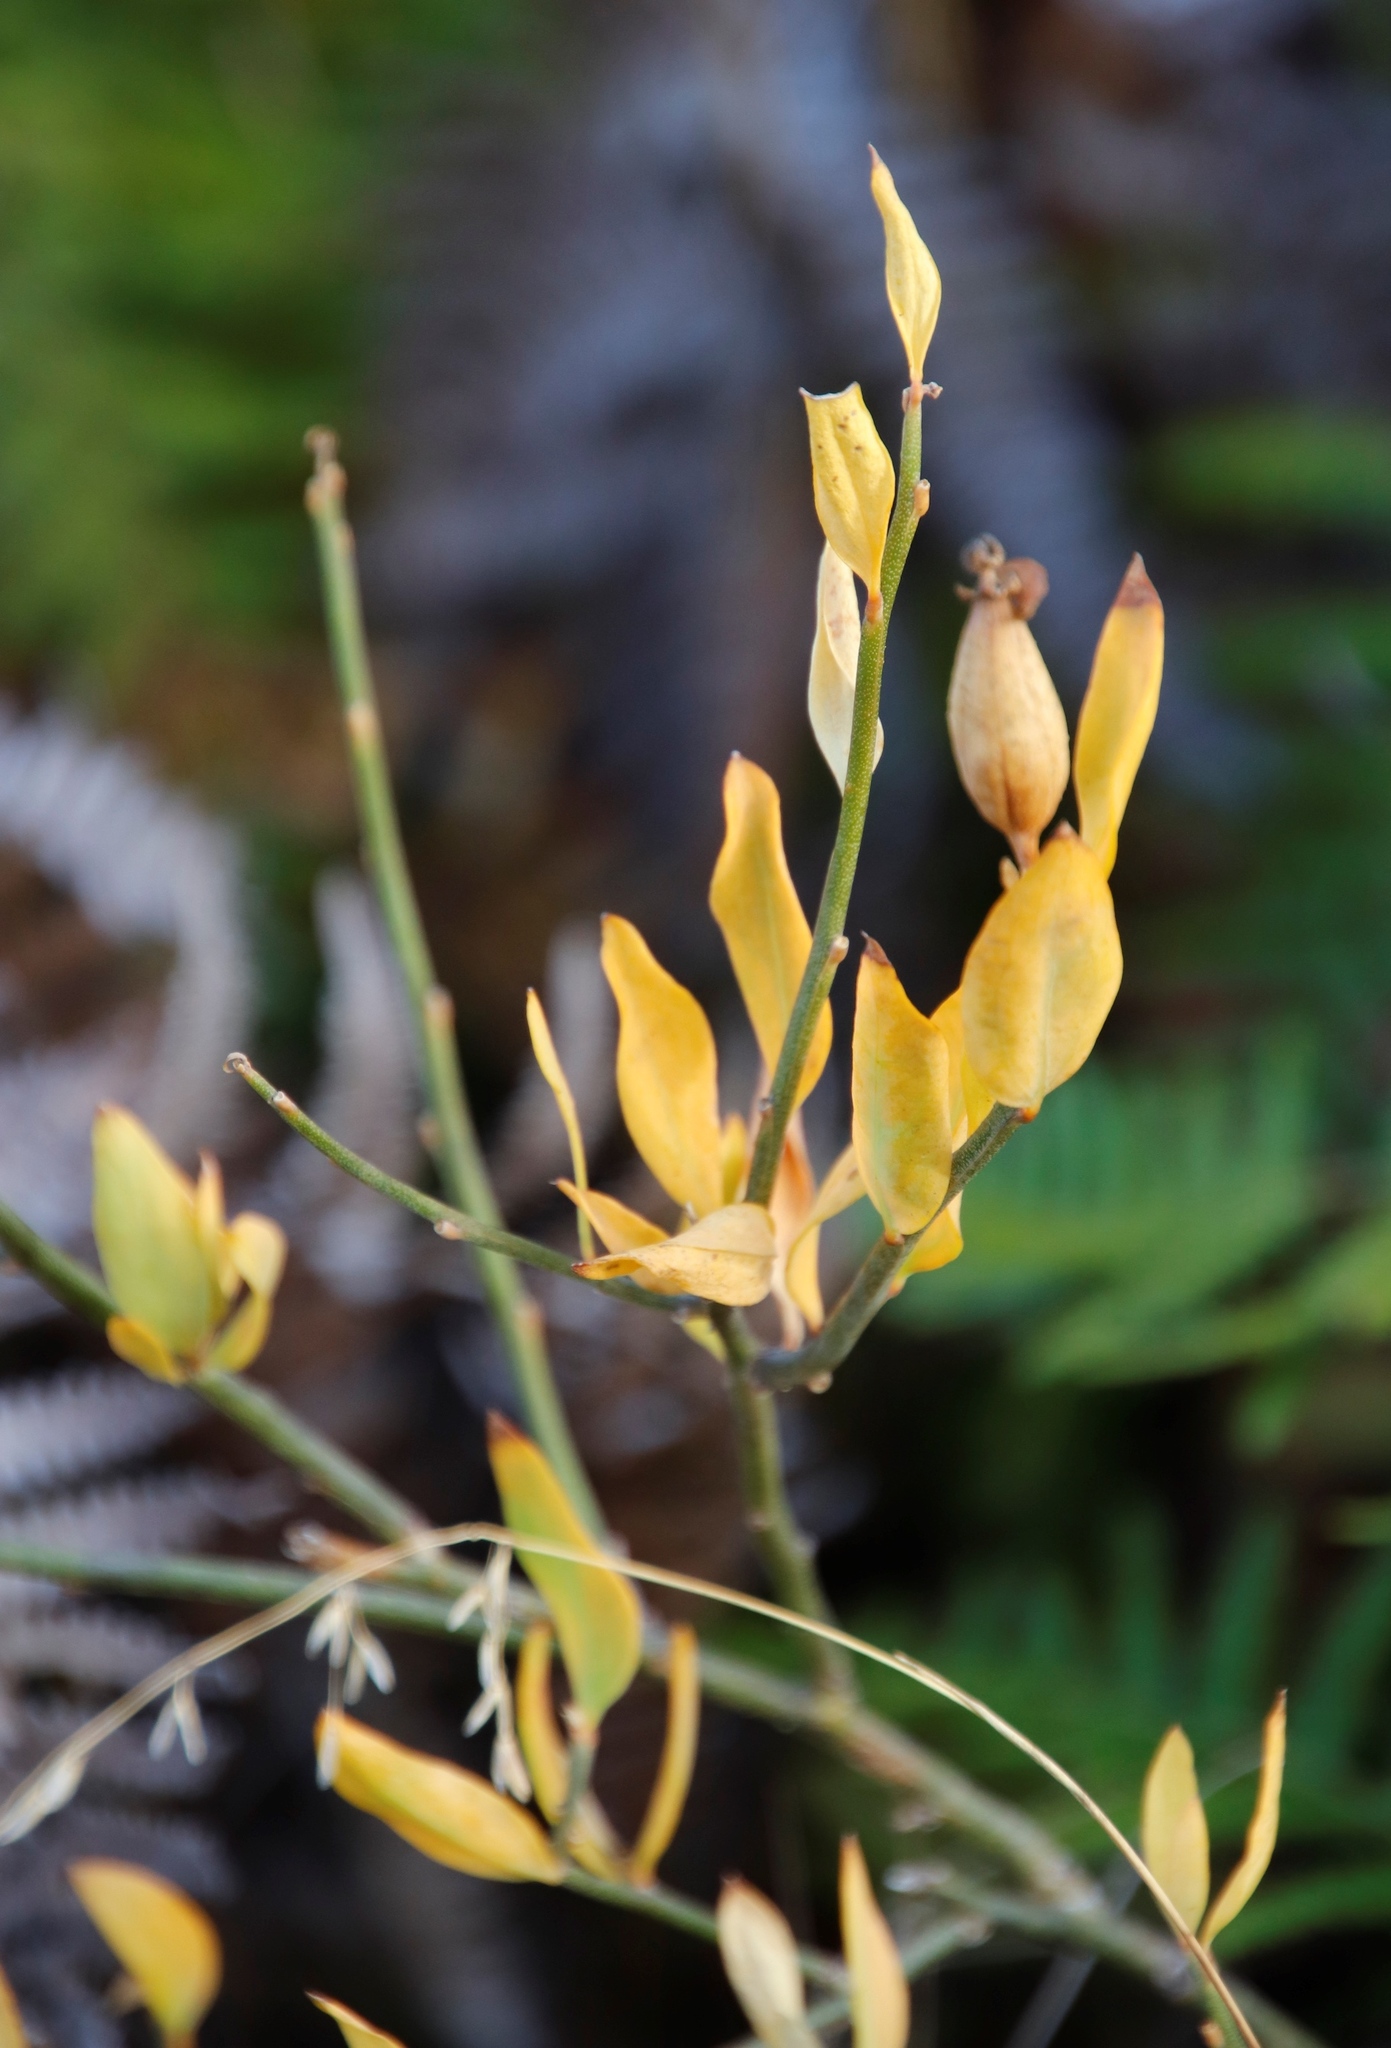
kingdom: Plantae
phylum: Tracheophyta
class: Magnoliopsida
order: Solanales
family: Montiniaceae
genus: Montinia
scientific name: Montinia caryophyllacea
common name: Wild clove-bush
